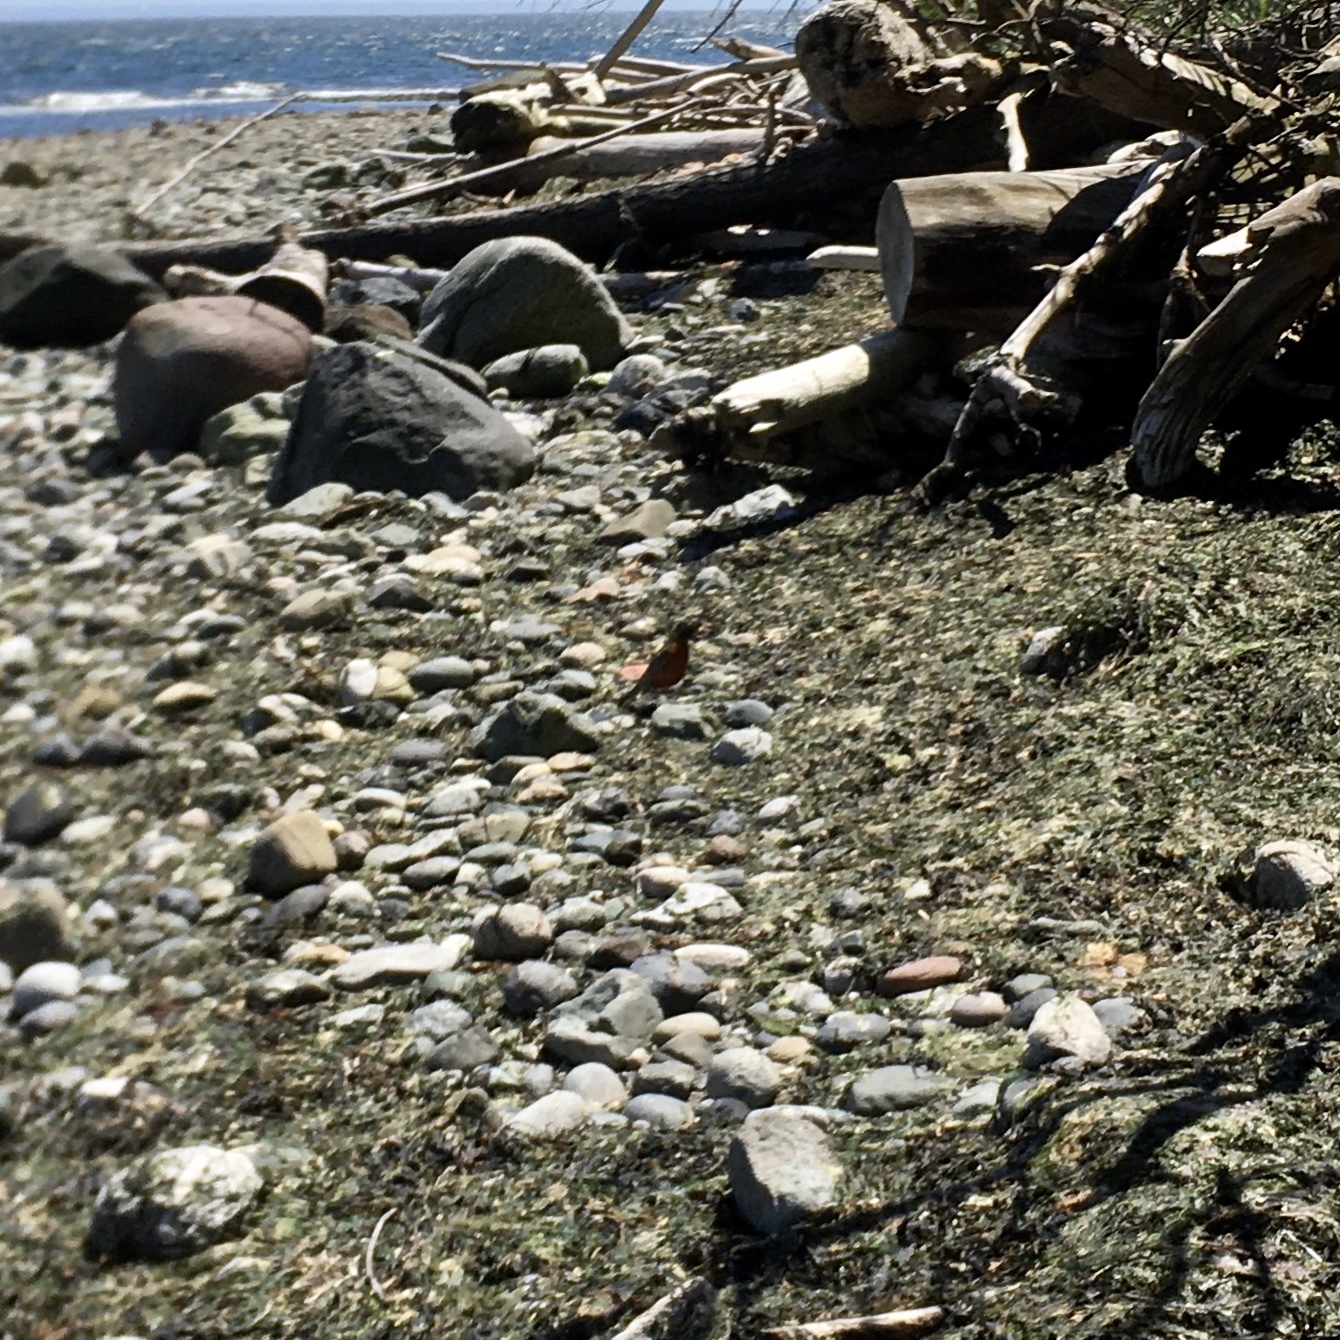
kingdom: Animalia
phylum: Chordata
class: Aves
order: Passeriformes
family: Turdidae
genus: Turdus
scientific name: Turdus migratorius
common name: American robin
